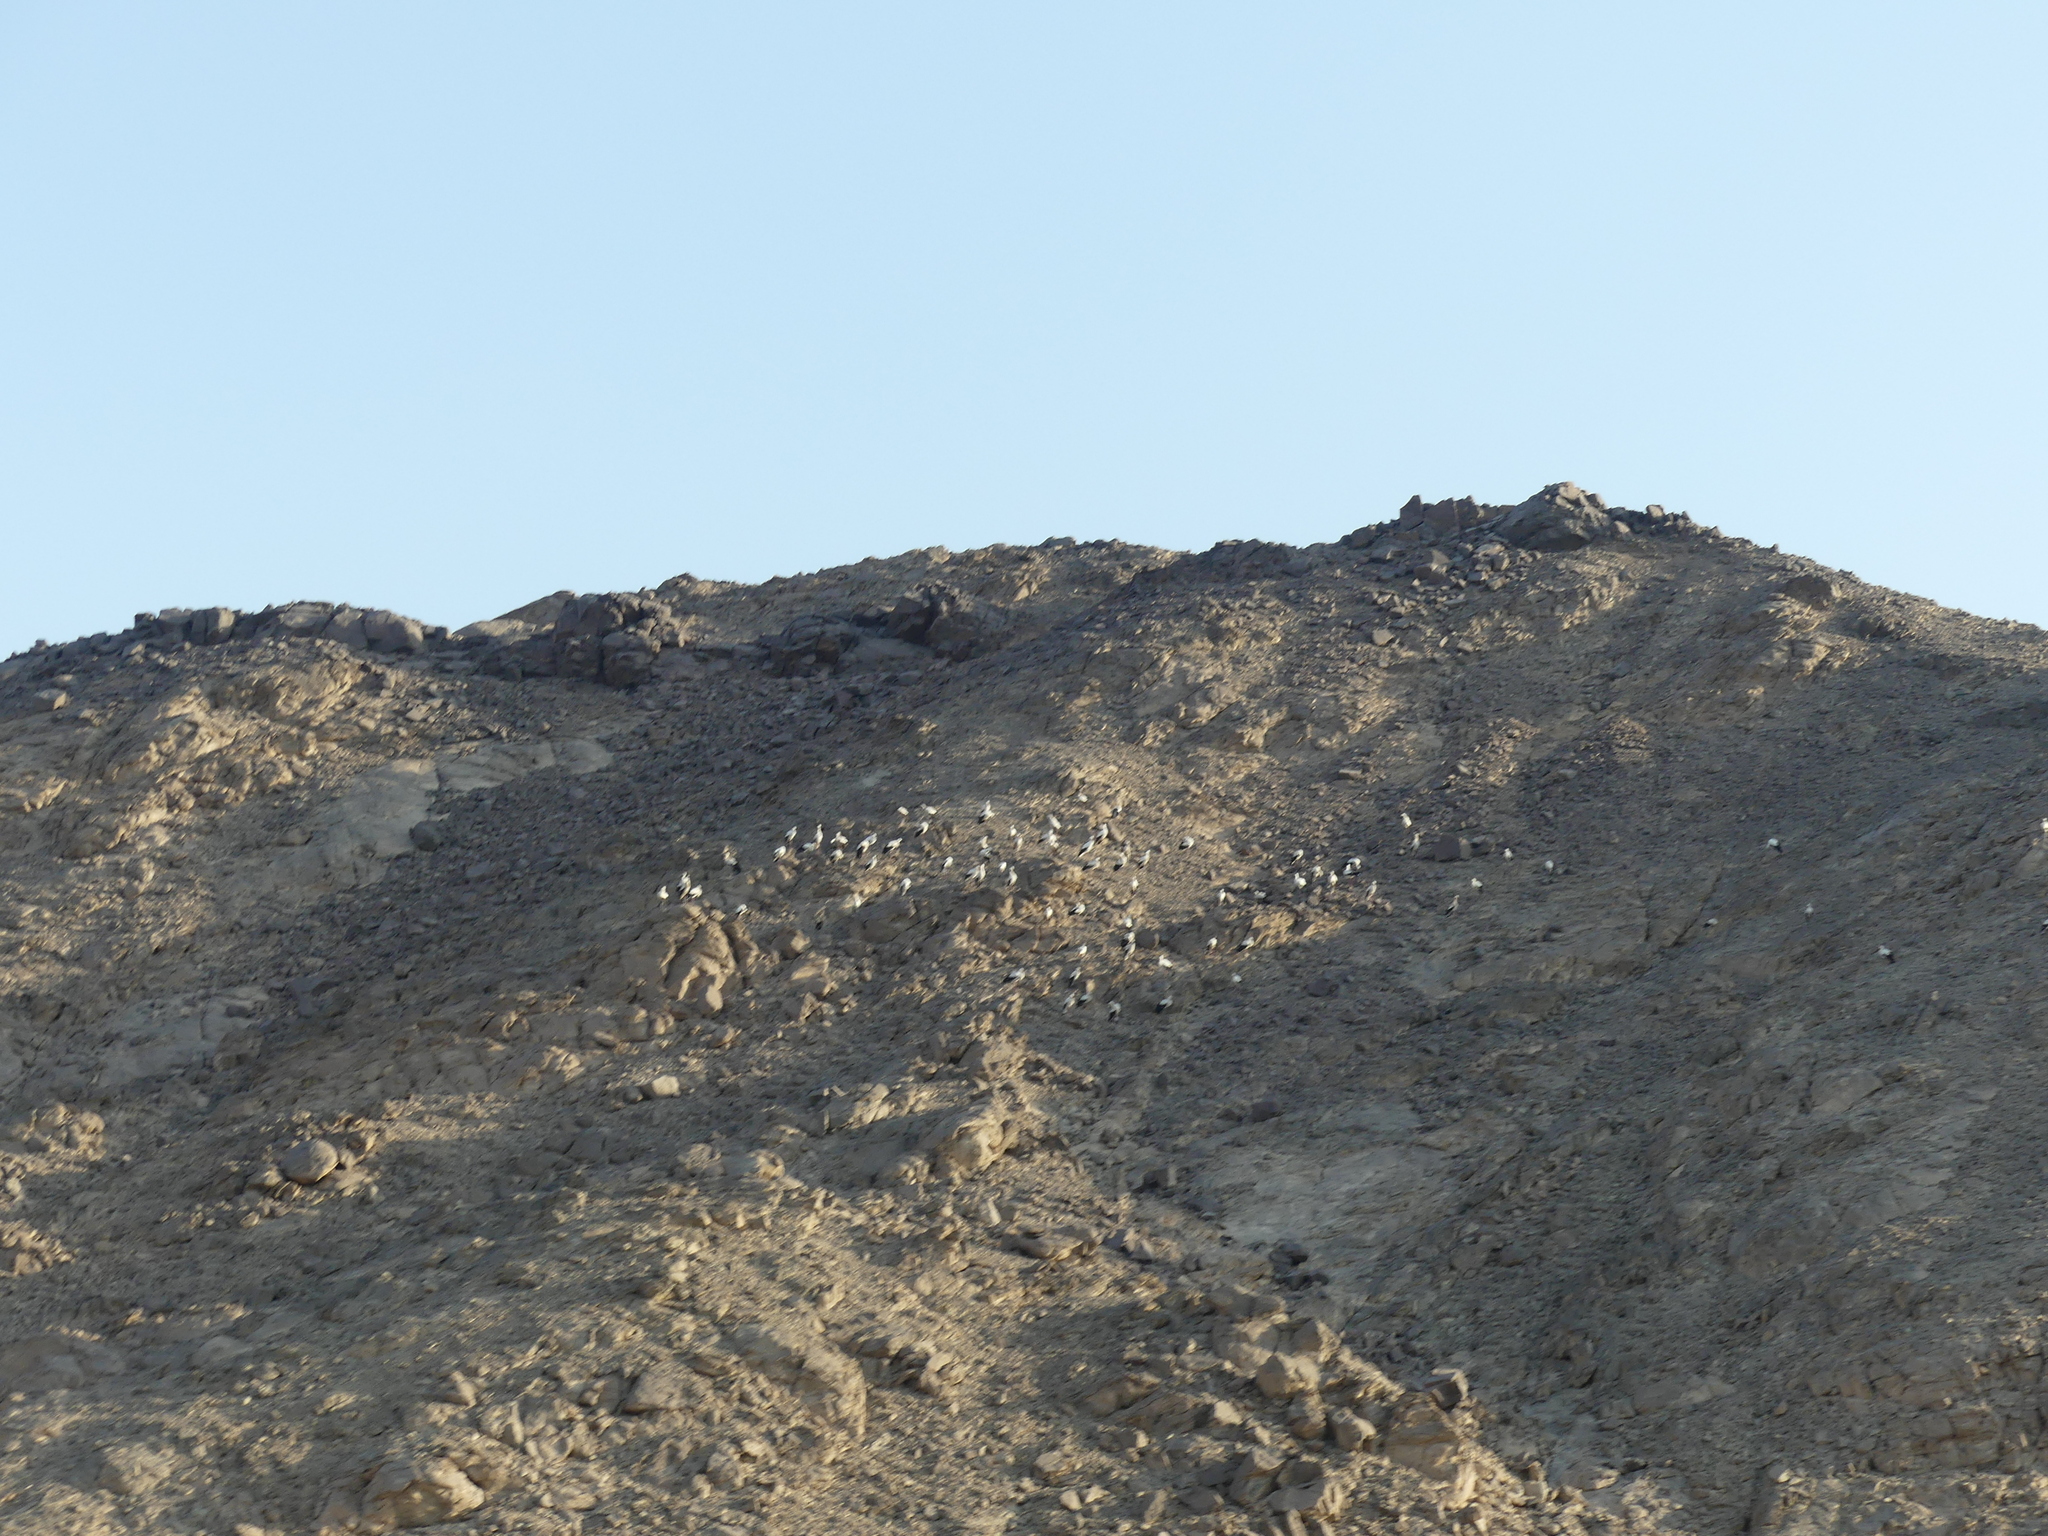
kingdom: Animalia
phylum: Chordata
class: Aves
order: Ciconiiformes
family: Ciconiidae
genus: Ciconia
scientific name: Ciconia ciconia
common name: White stork
